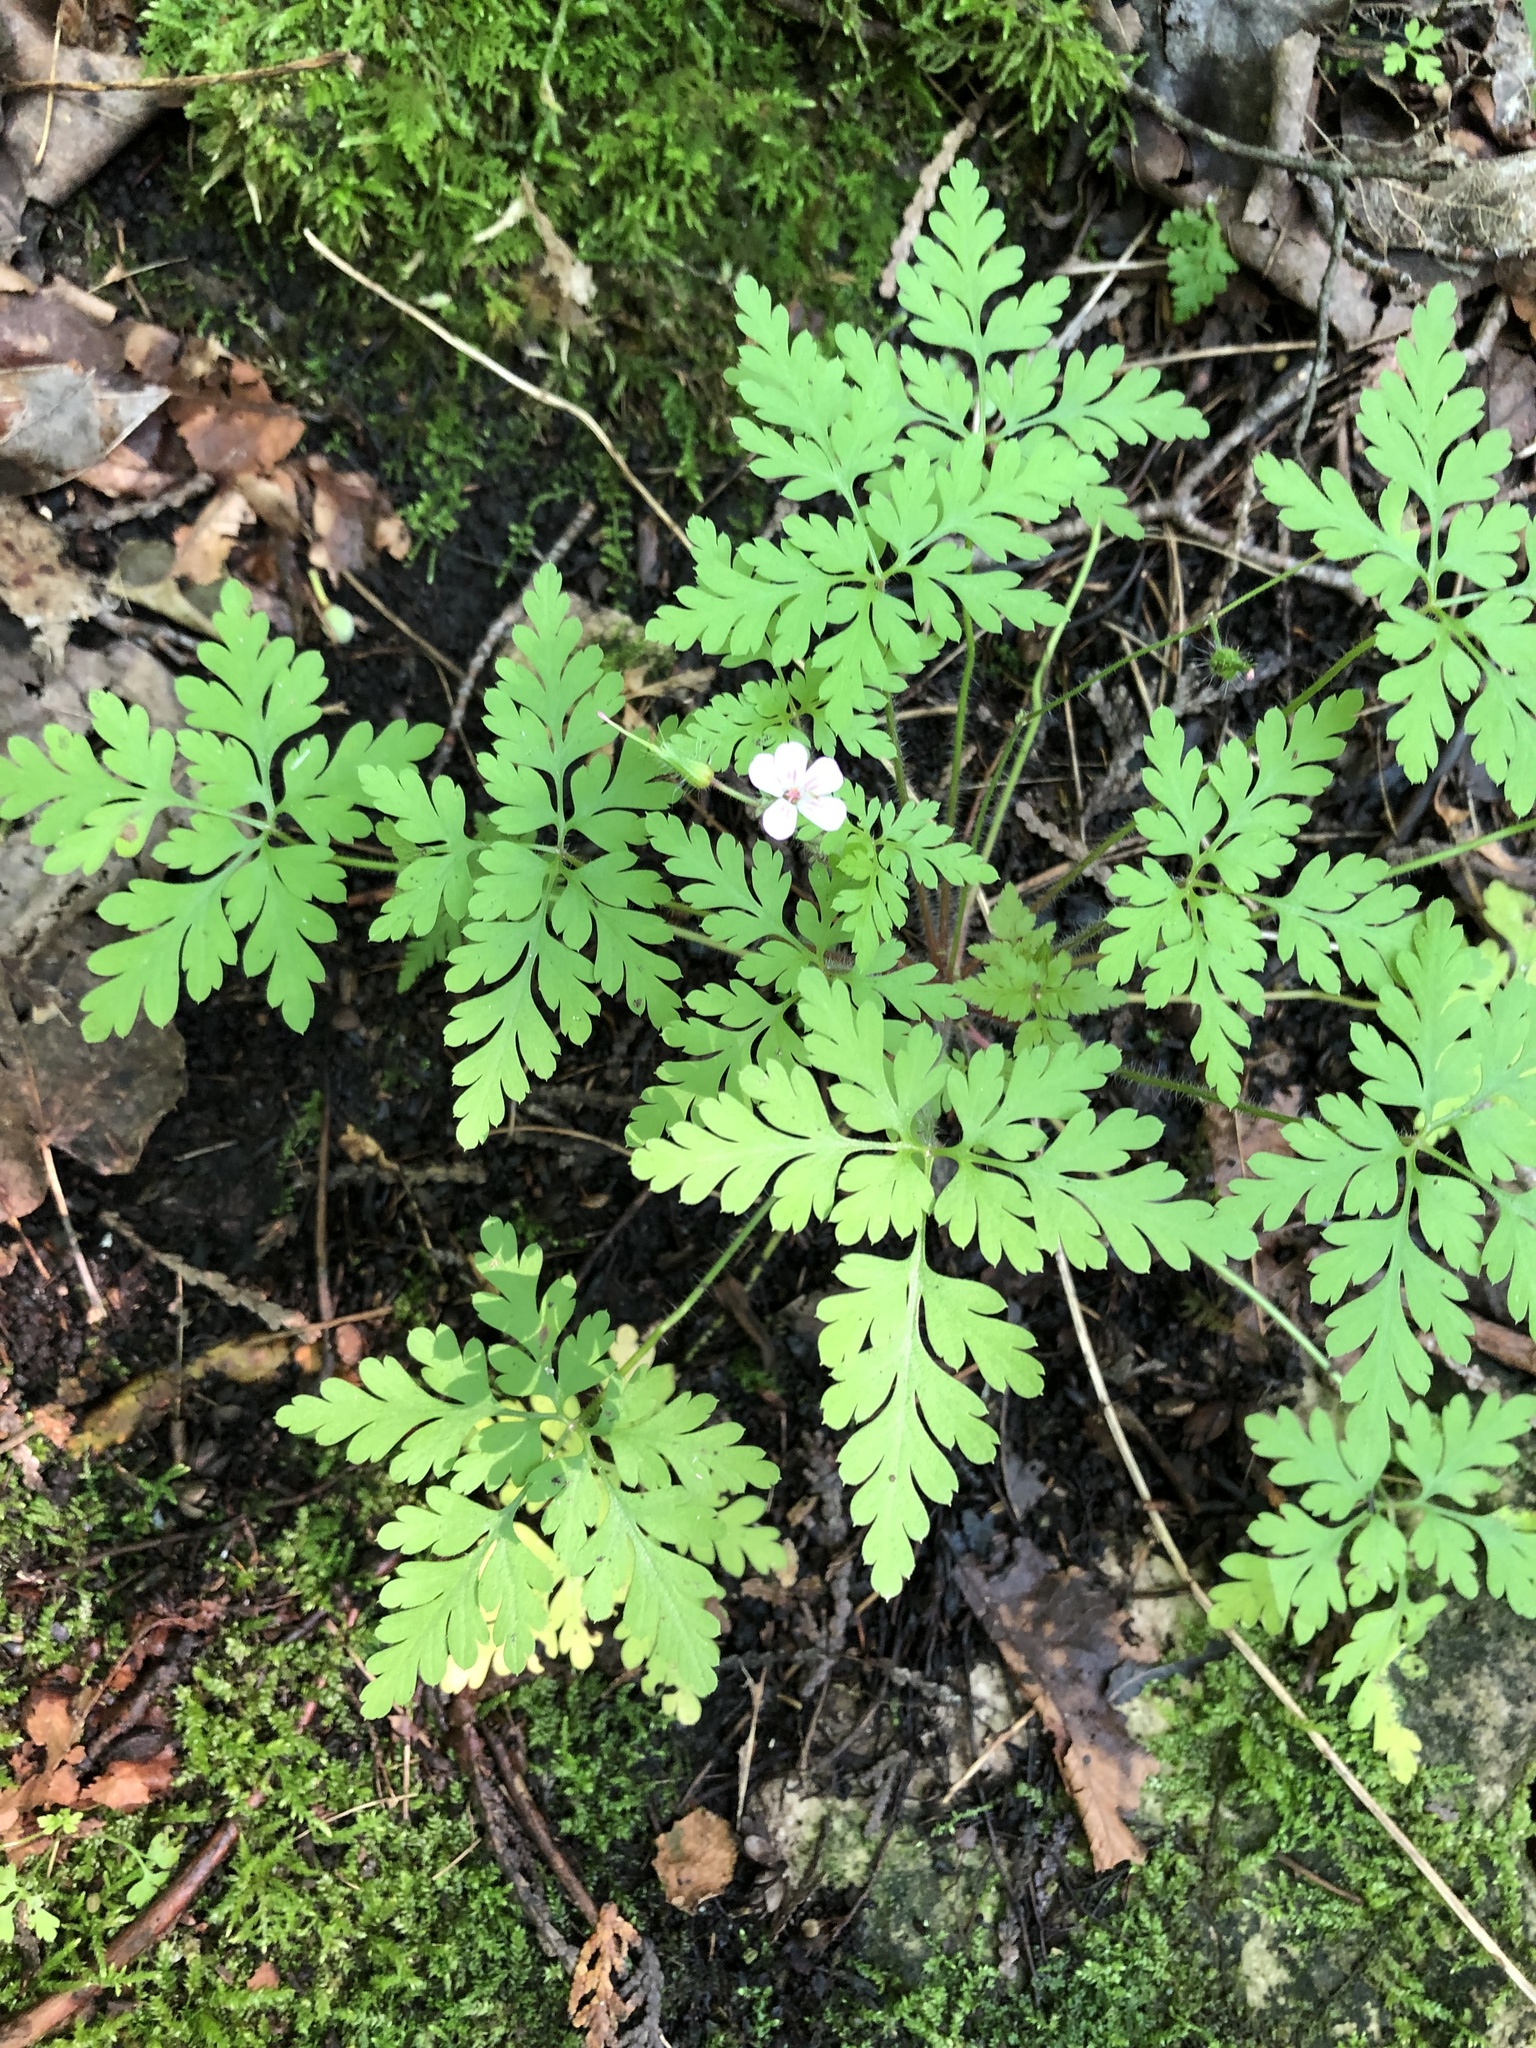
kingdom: Plantae
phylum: Tracheophyta
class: Magnoliopsida
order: Geraniales
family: Geraniaceae
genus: Geranium
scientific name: Geranium robertianum
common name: Herb-robert
